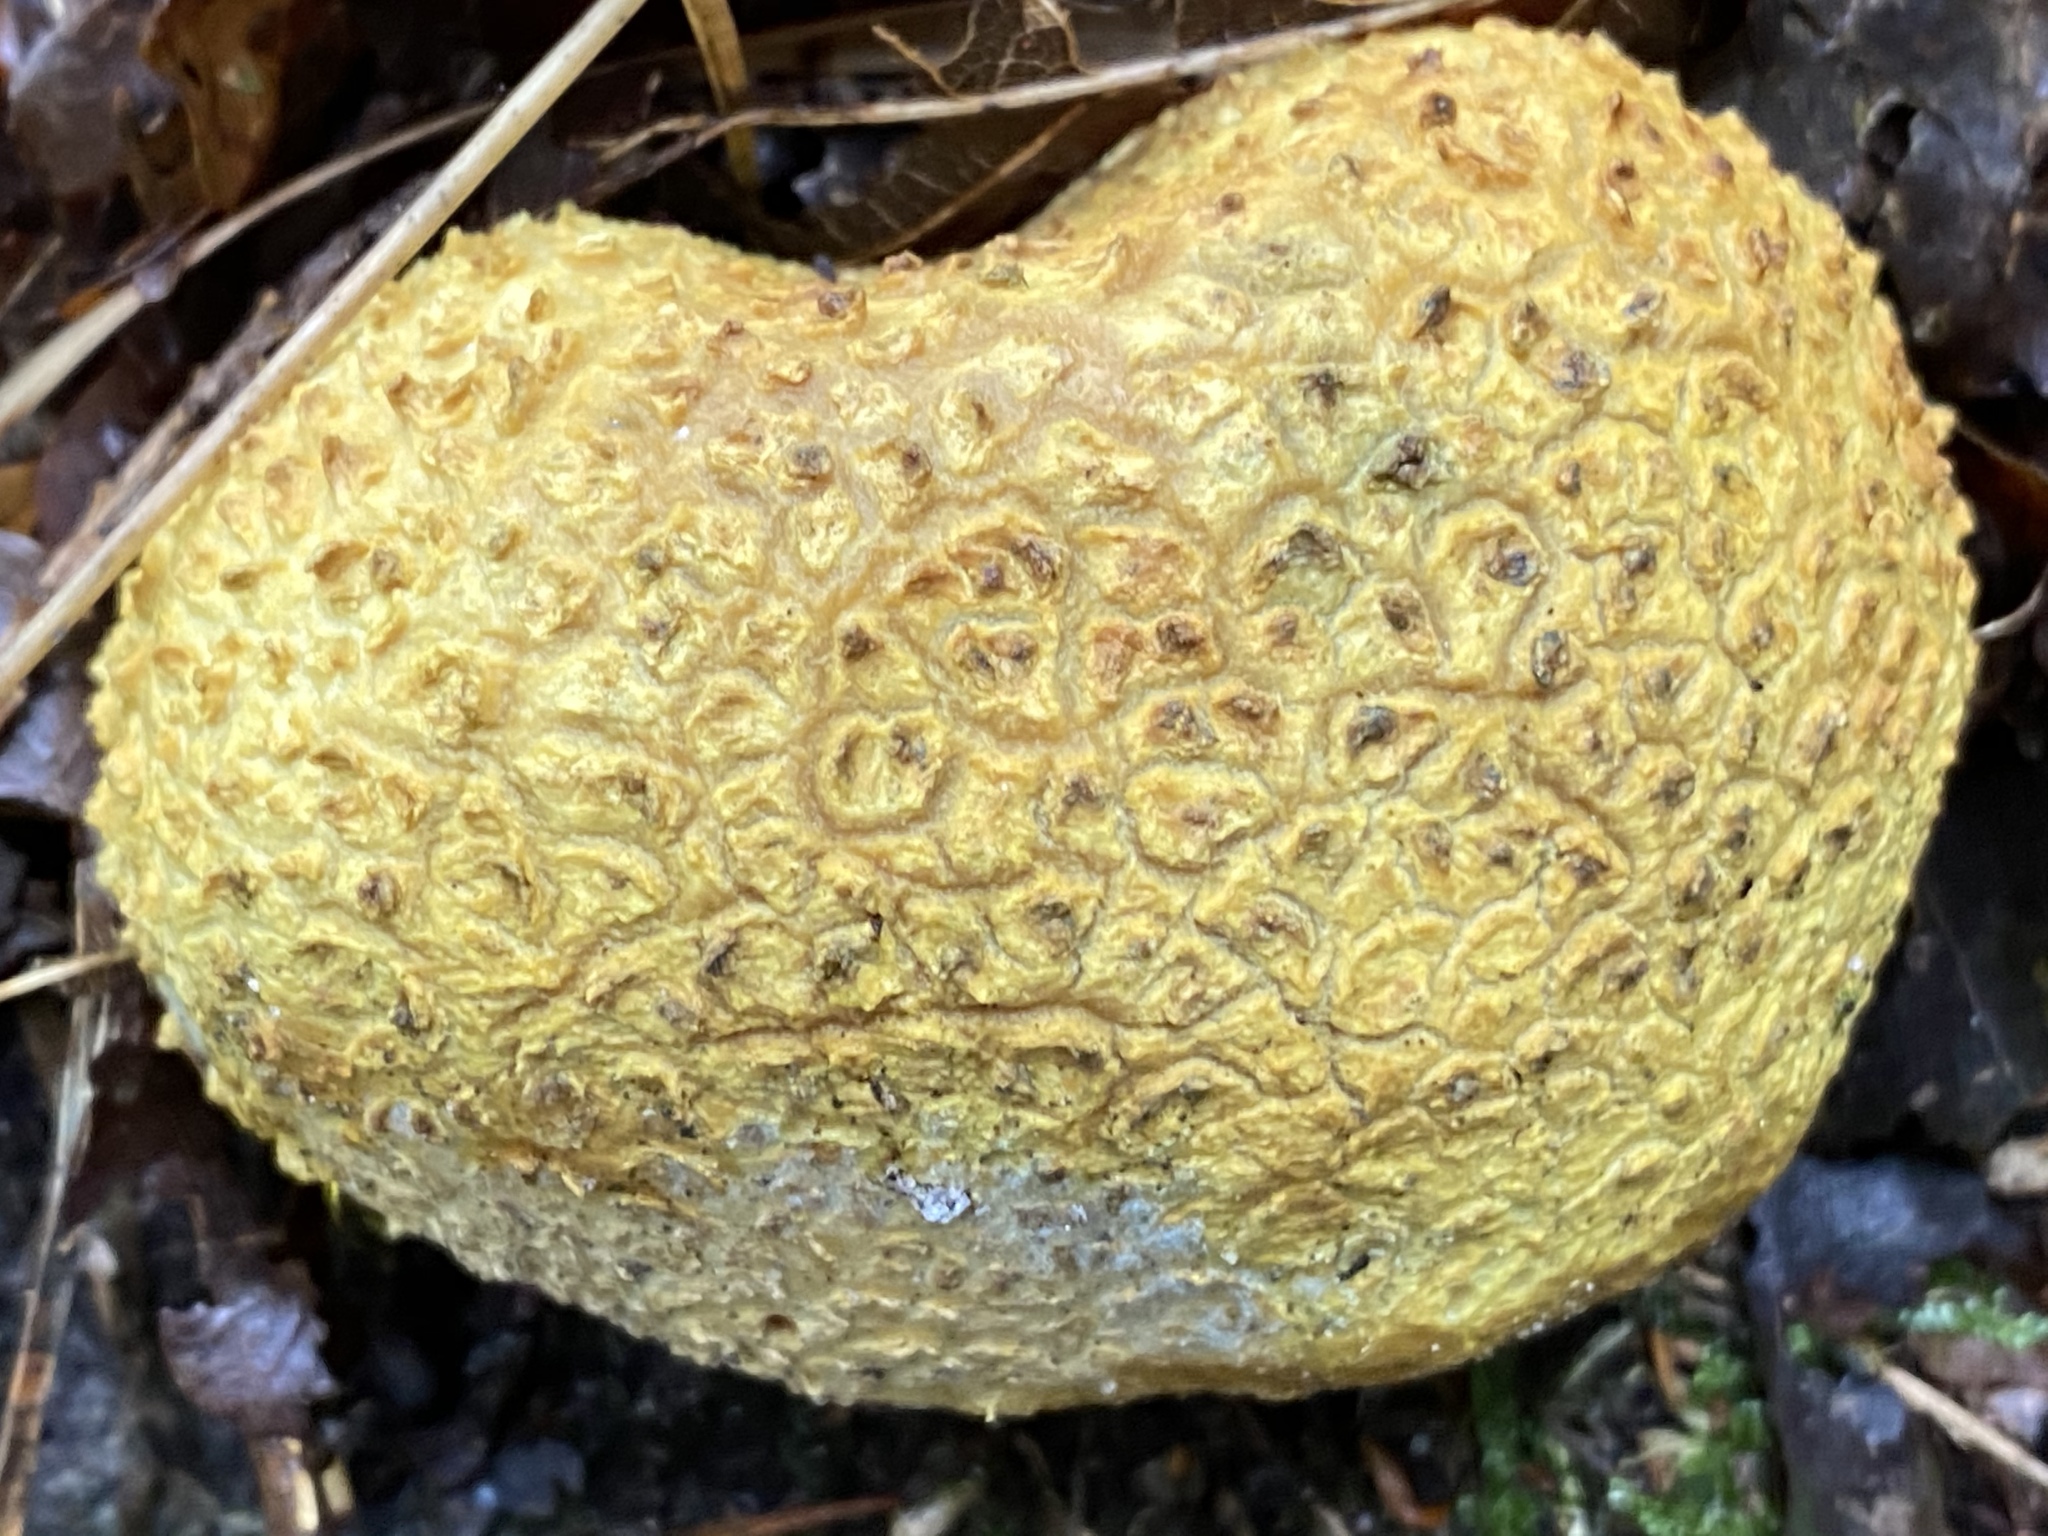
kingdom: Fungi
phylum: Basidiomycota
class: Agaricomycetes
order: Boletales
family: Sclerodermataceae
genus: Scleroderma
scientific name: Scleroderma citrinum
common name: Common earthball
